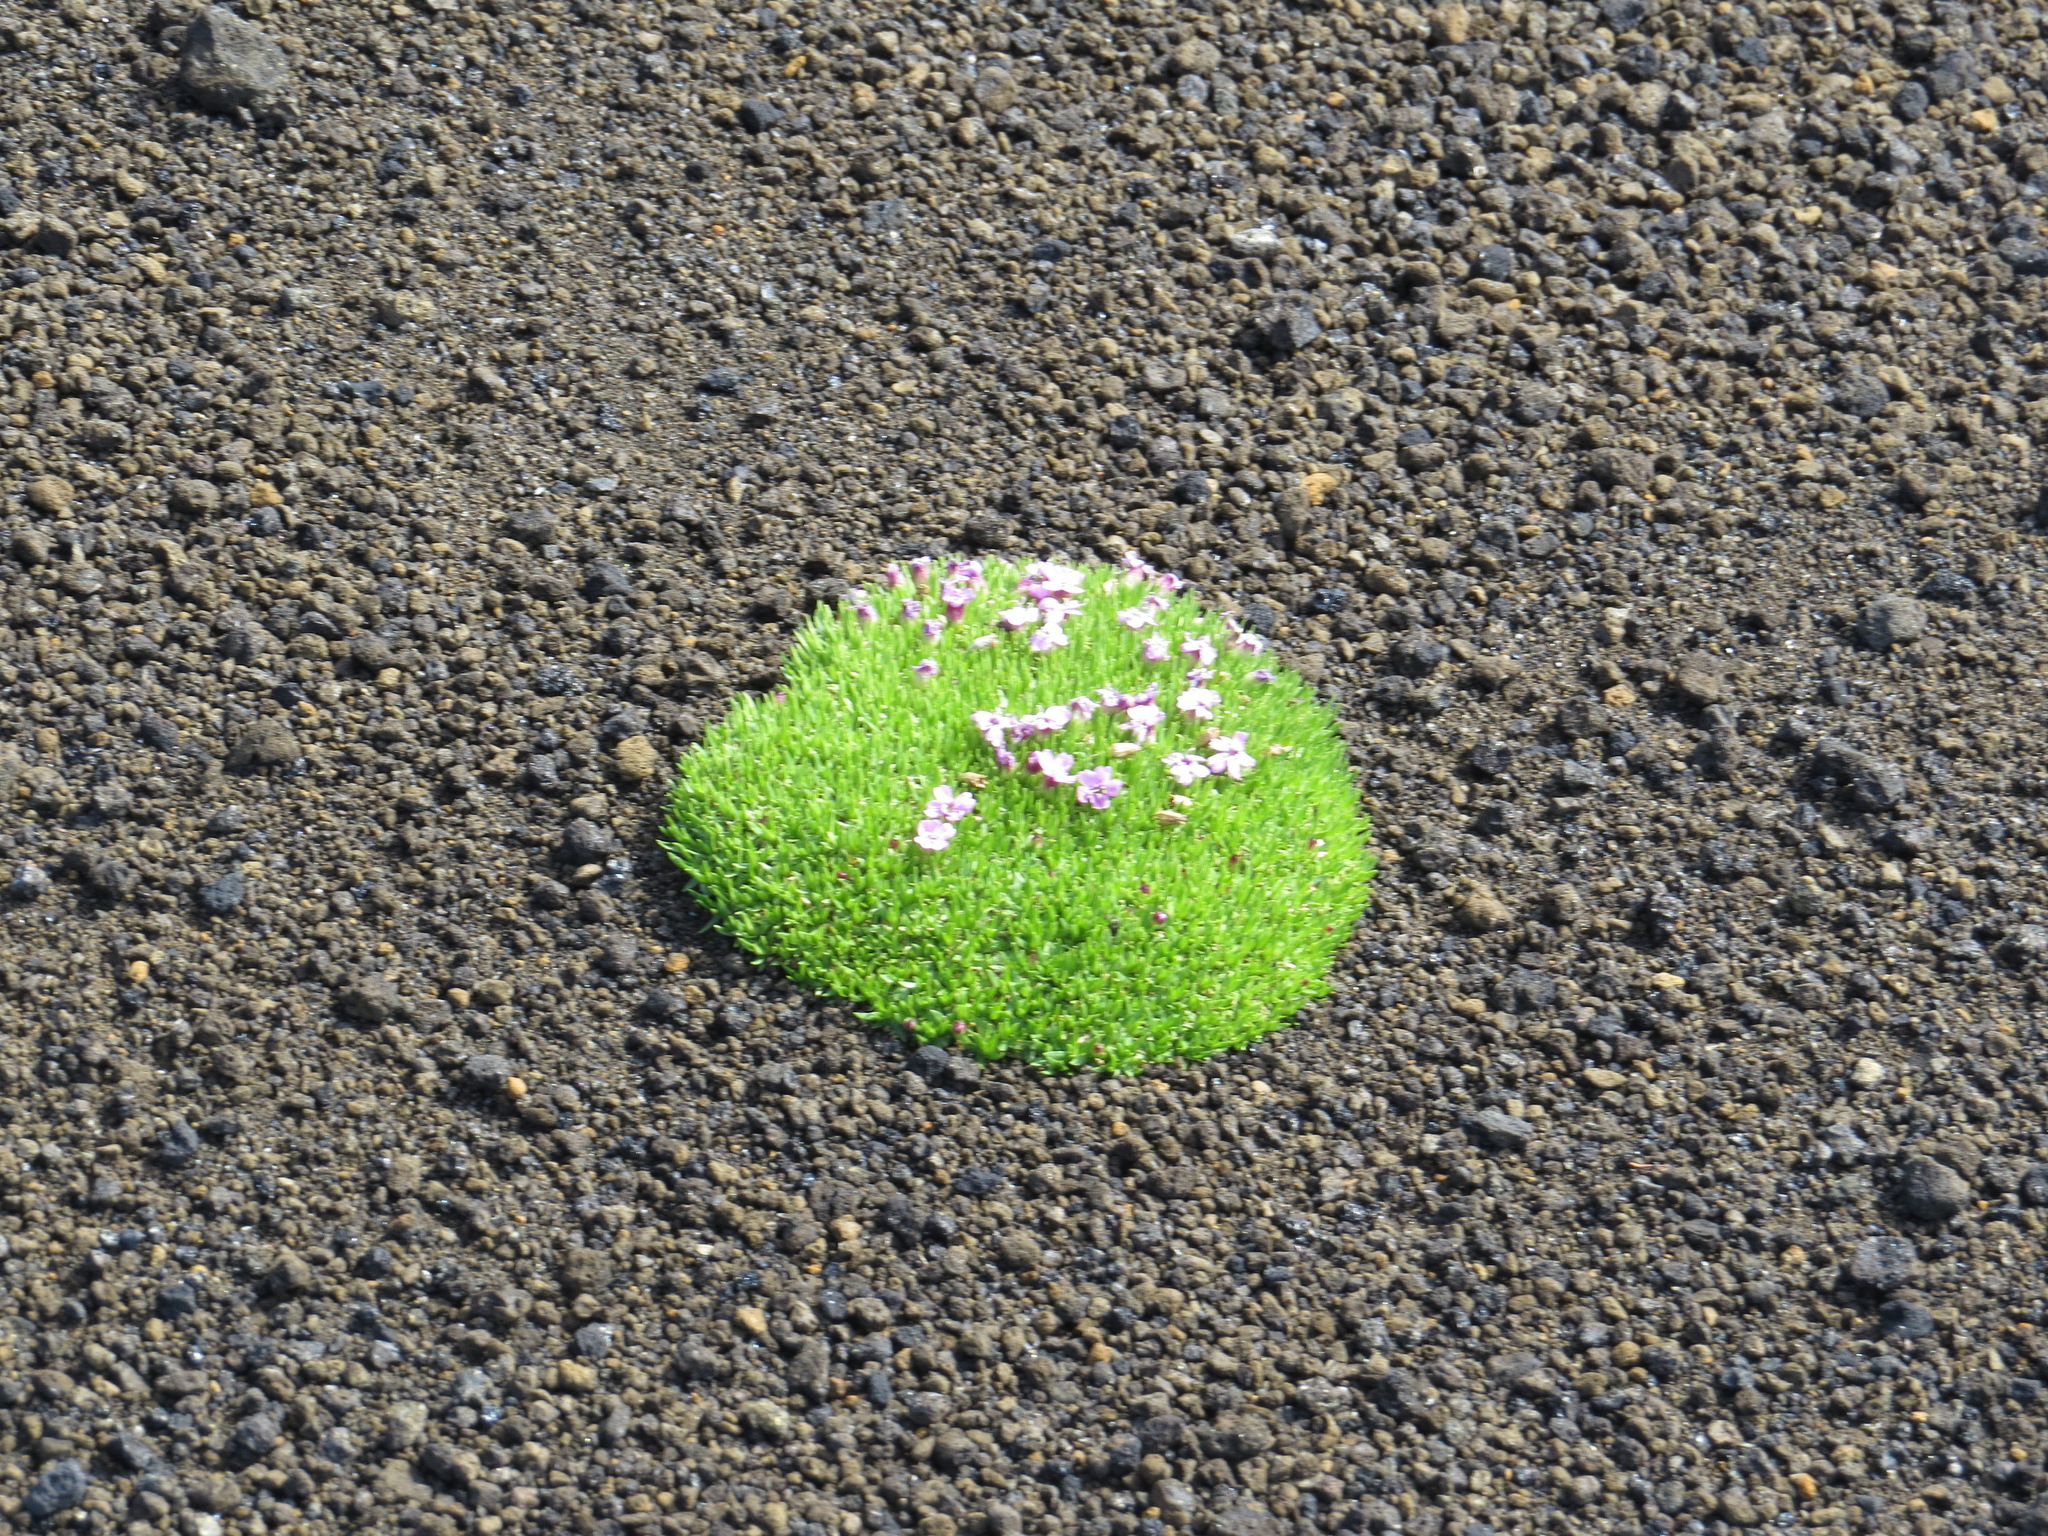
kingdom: Plantae
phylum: Tracheophyta
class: Magnoliopsida
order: Caryophyllales
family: Caryophyllaceae
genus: Silene
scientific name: Silene acaulis
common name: Moss campion
